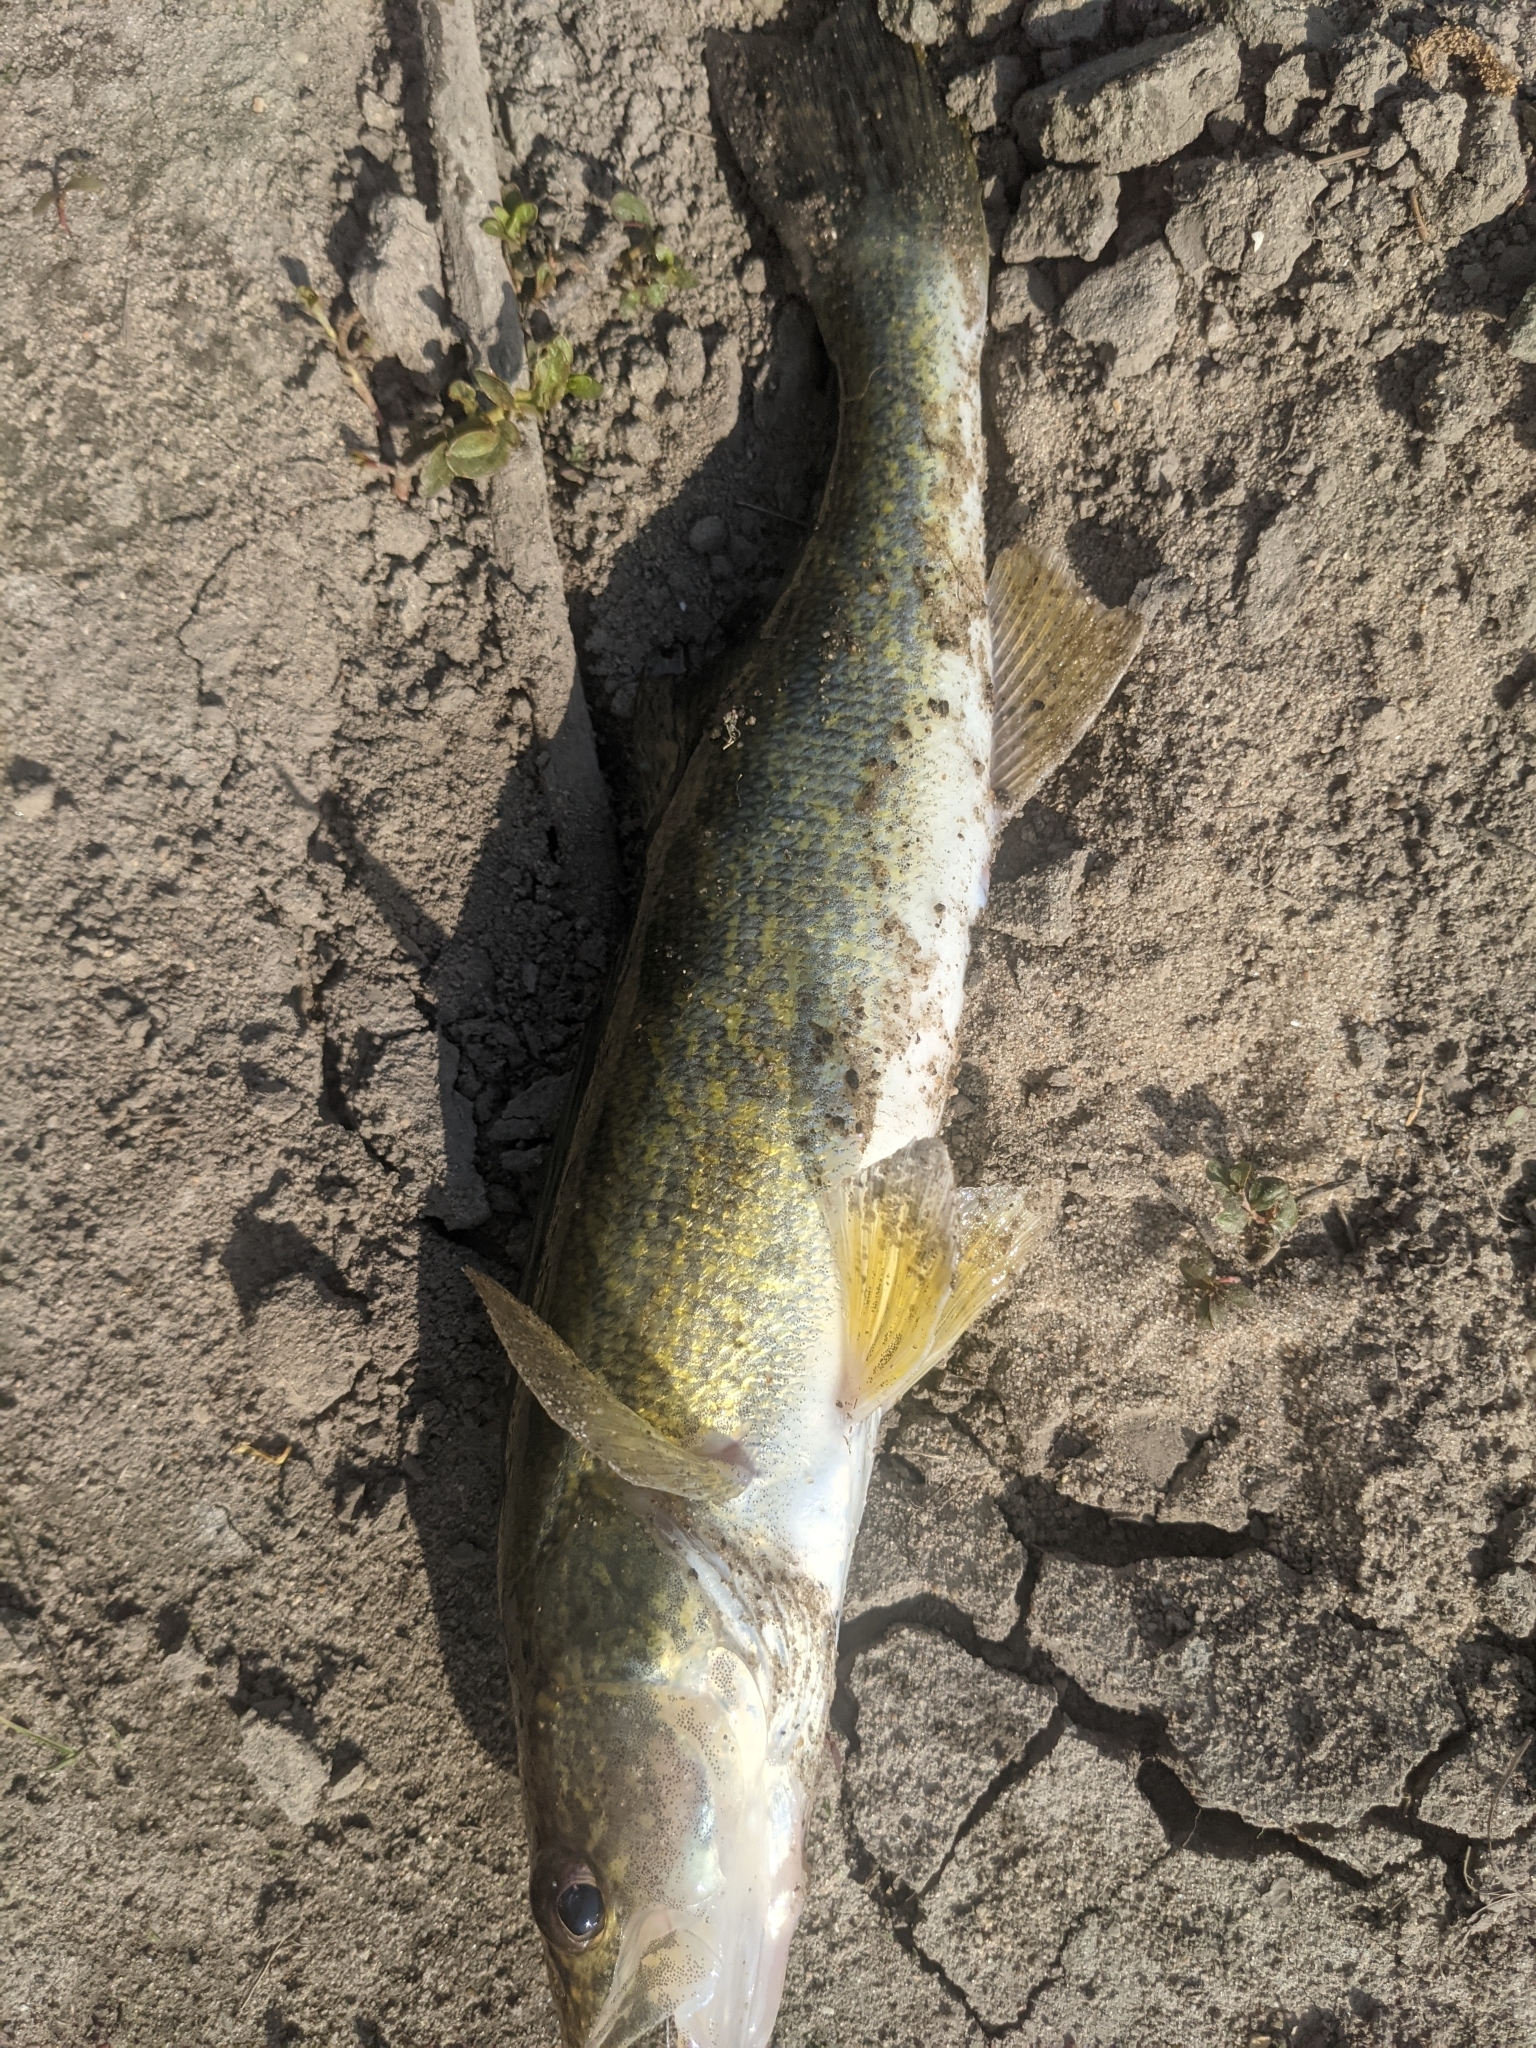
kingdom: Animalia
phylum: Chordata
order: Perciformes
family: Percidae
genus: Sander
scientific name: Sander vitreus
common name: Walleye
